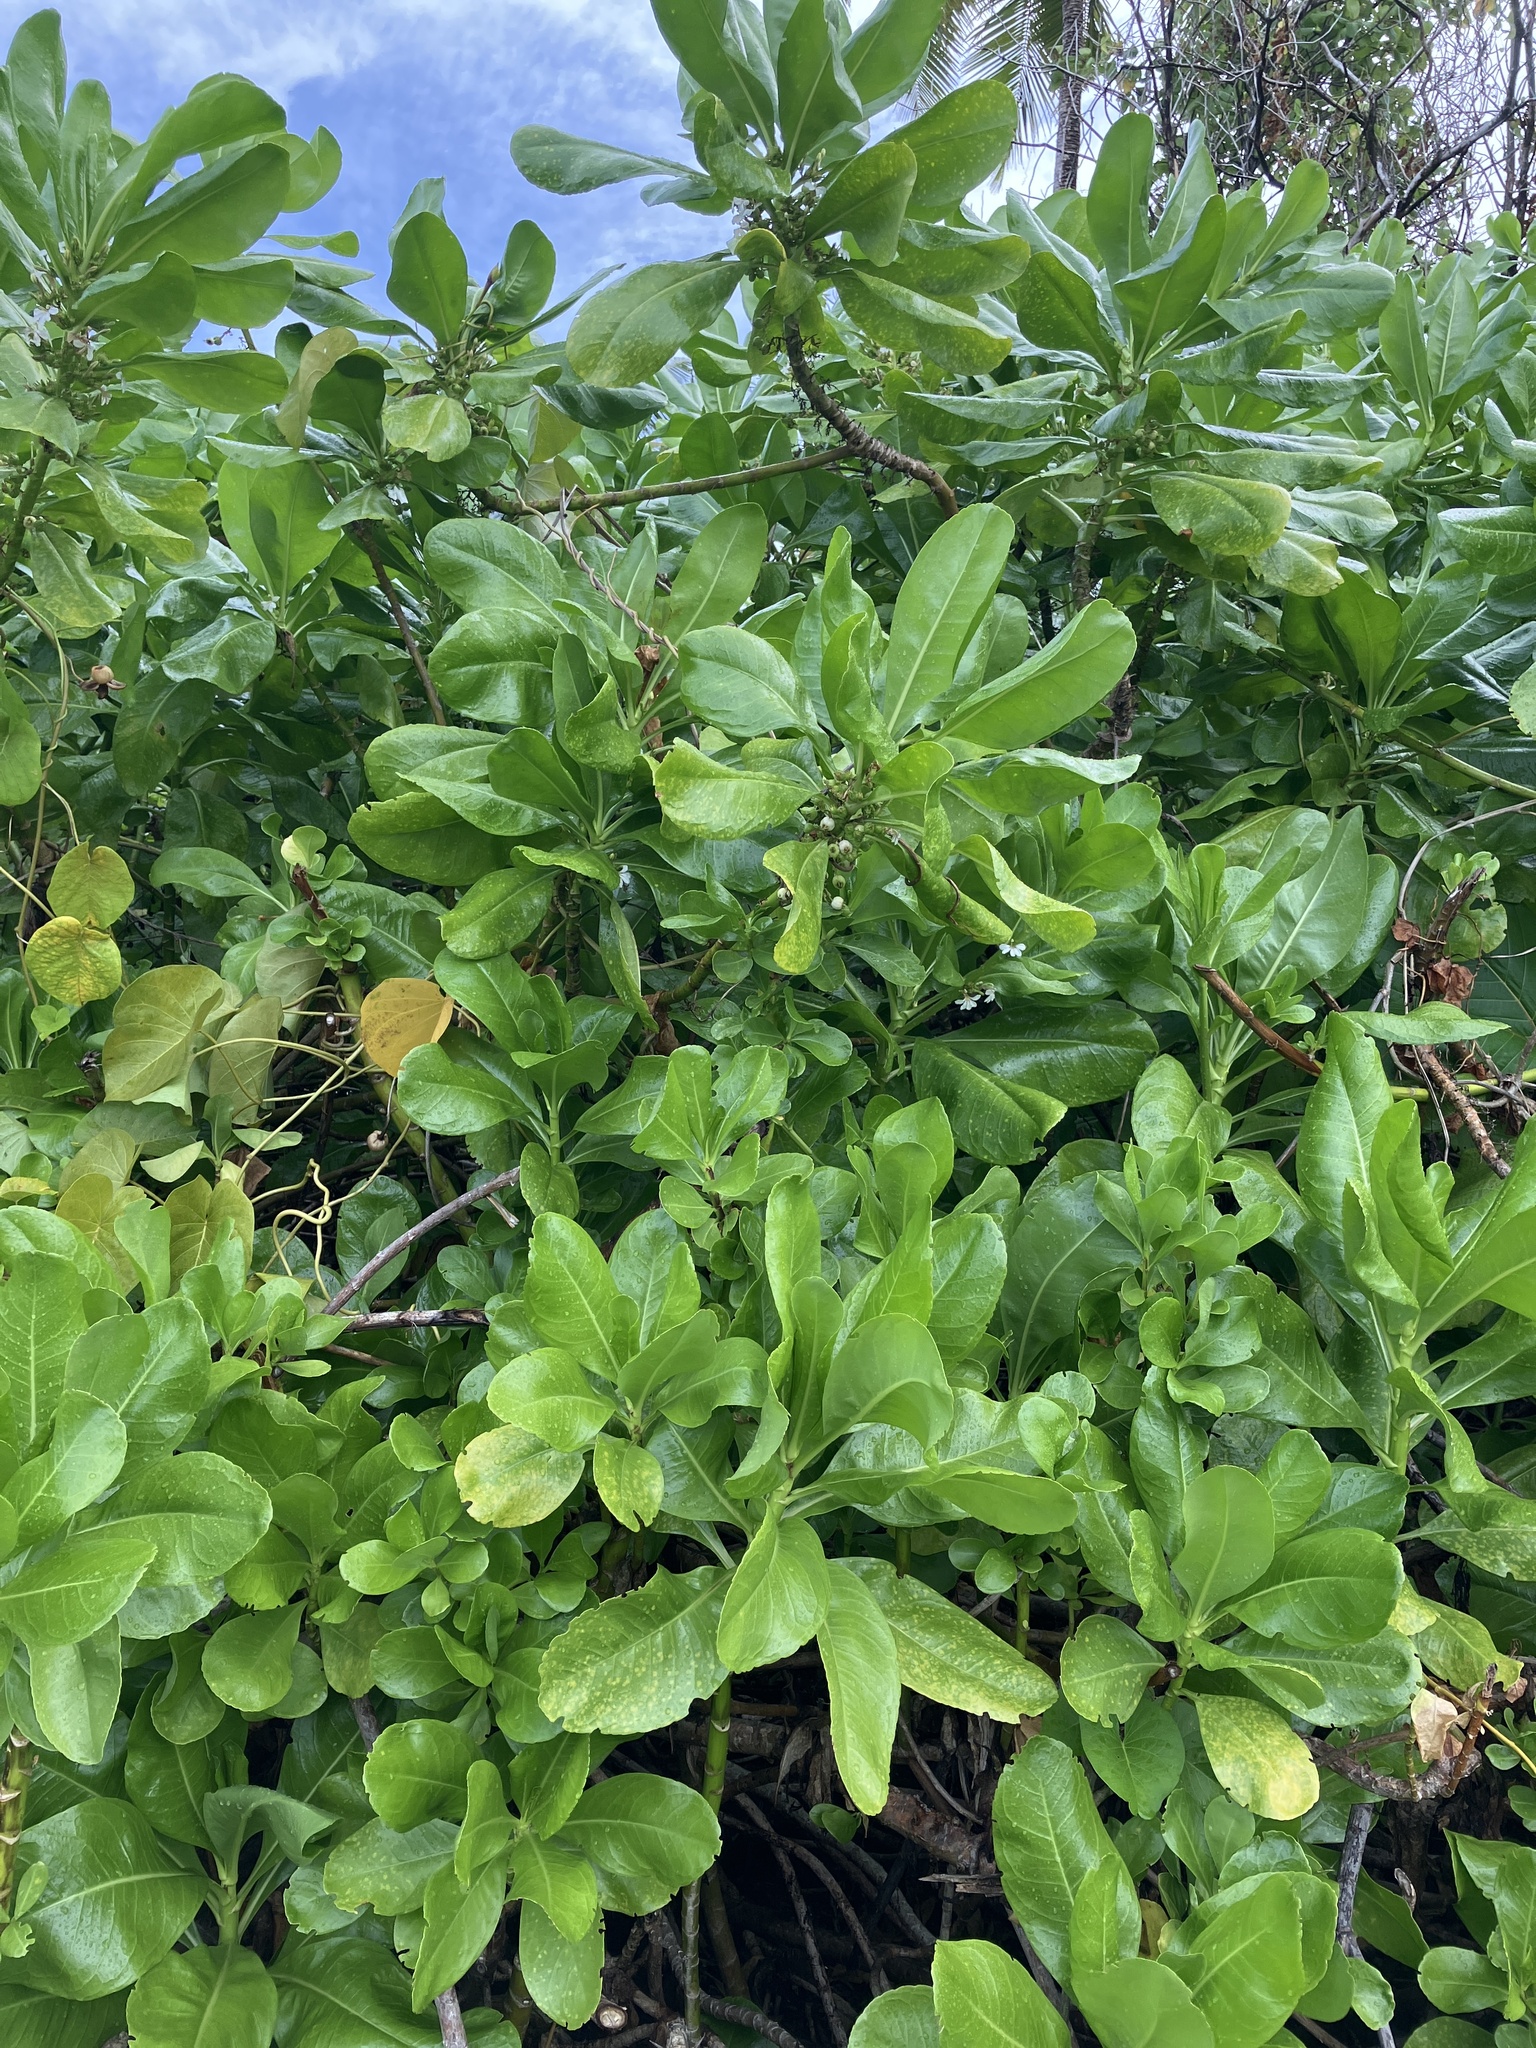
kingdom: Plantae
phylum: Tracheophyta
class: Magnoliopsida
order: Asterales
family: Goodeniaceae
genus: Scaevola
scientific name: Scaevola taccada
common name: Sea lettucetree
